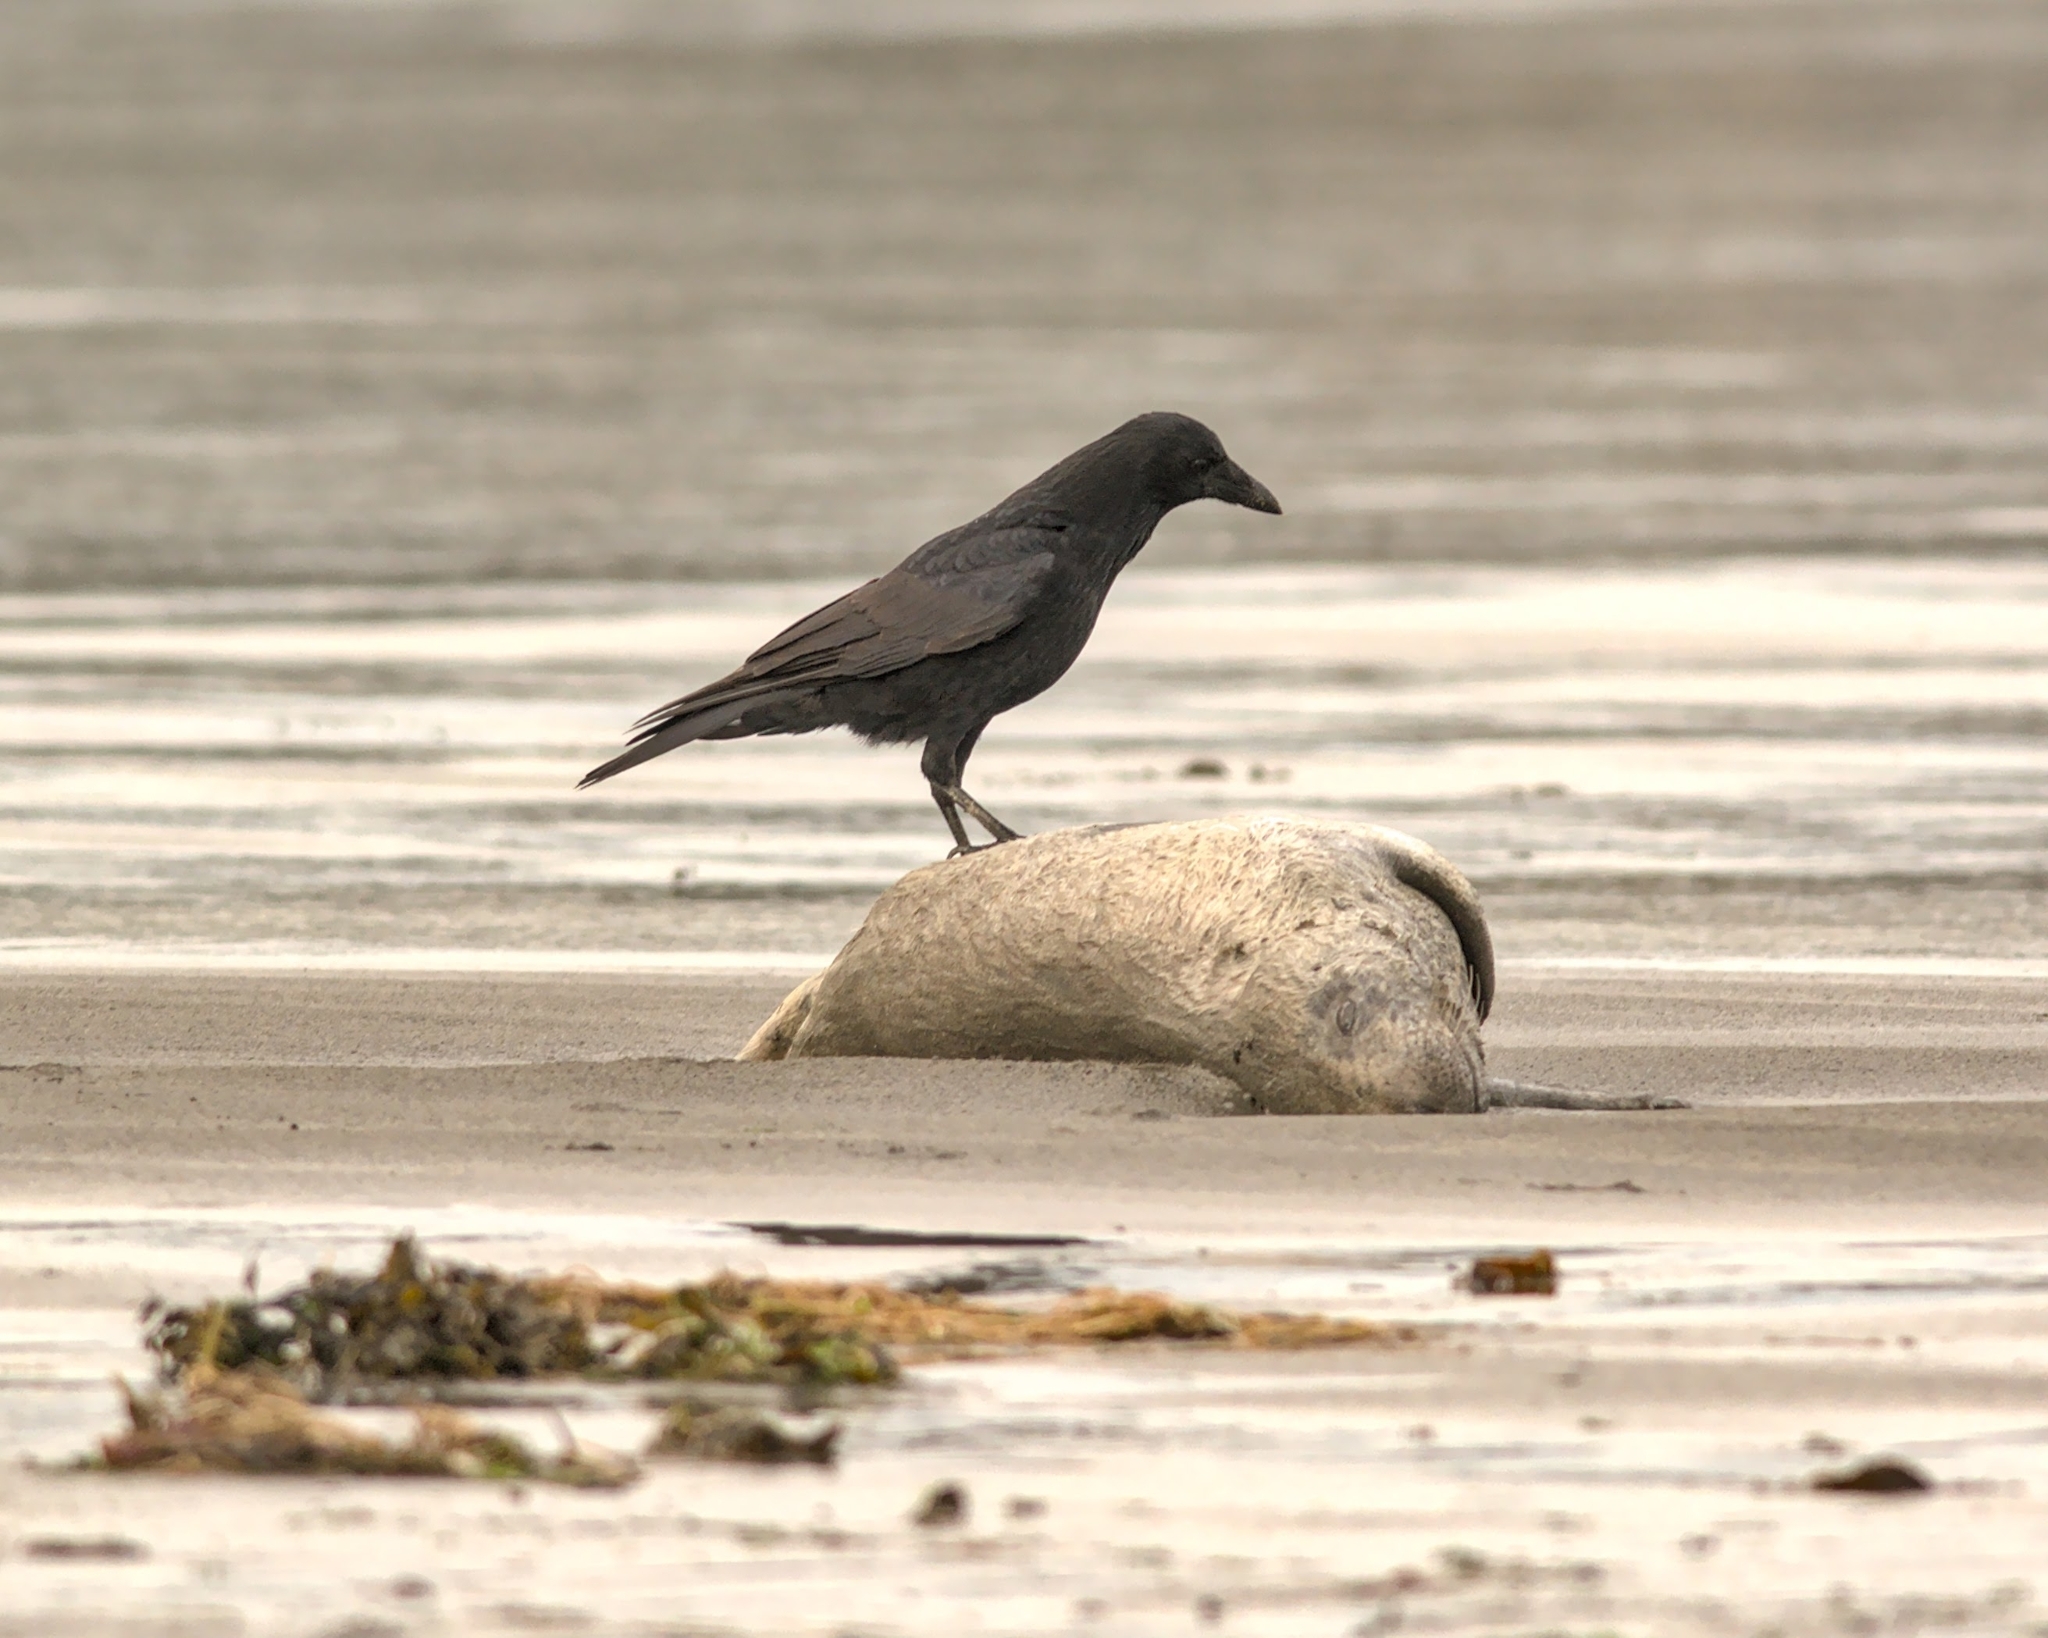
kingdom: Animalia
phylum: Chordata
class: Aves
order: Passeriformes
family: Corvidae
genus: Corvus
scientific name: Corvus corone
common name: Carrion crow
